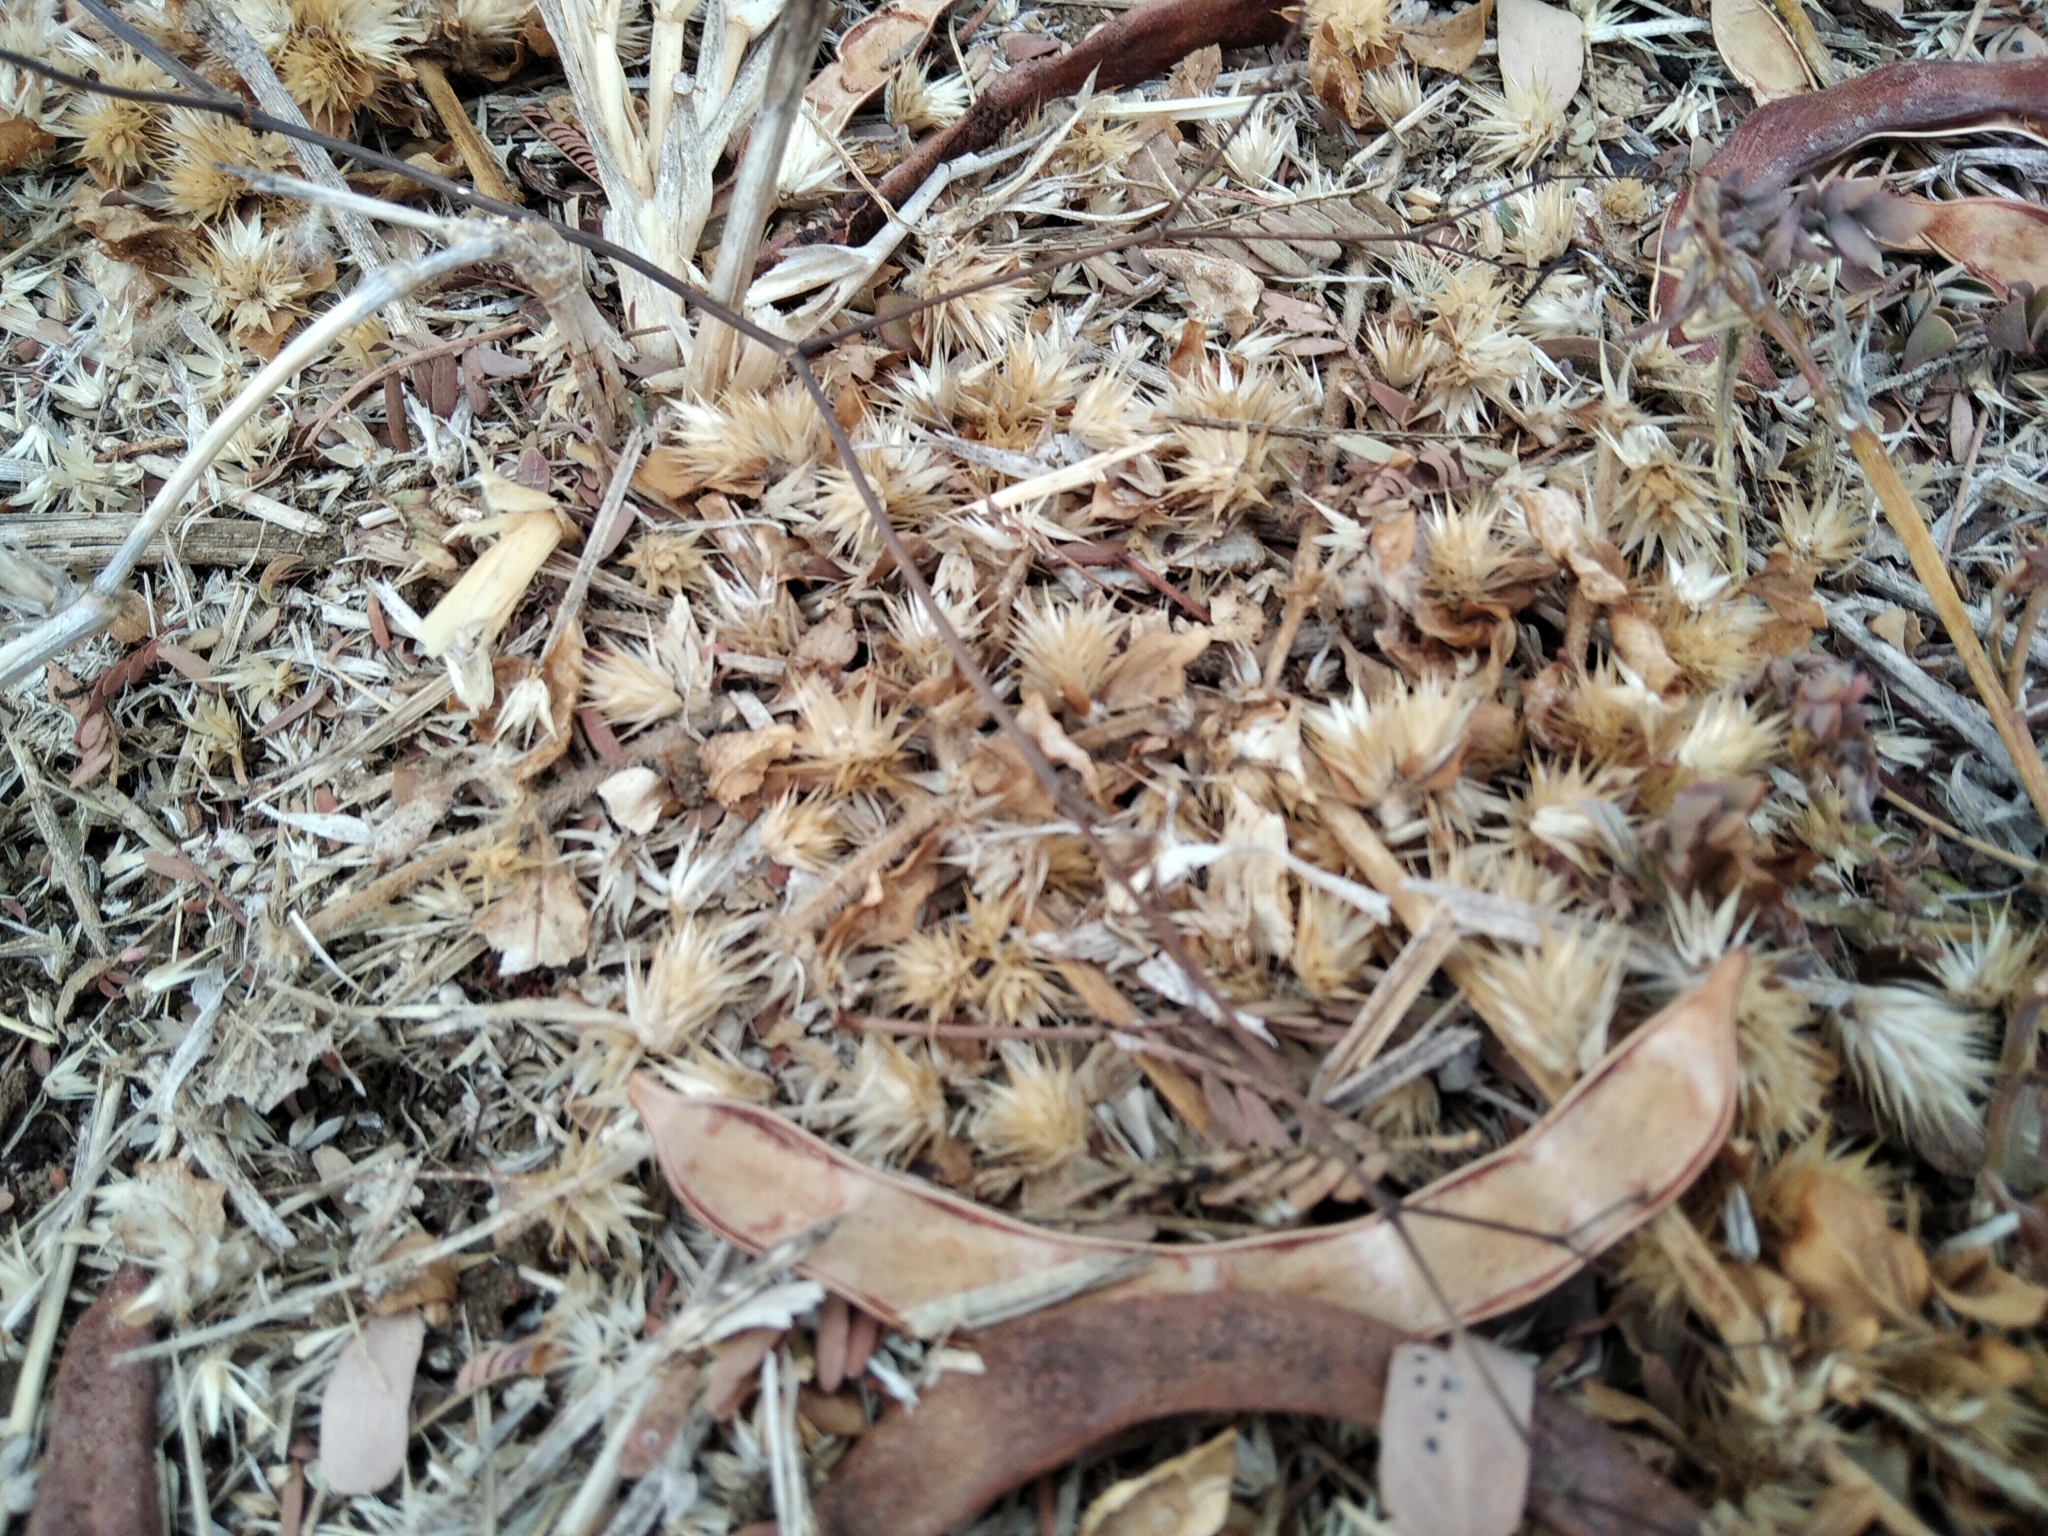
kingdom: Plantae
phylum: Tracheophyta
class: Magnoliopsida
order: Caryophyllales
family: Amaranthaceae
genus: Alternanthera
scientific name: Alternanthera pungens
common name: Khakiweed
